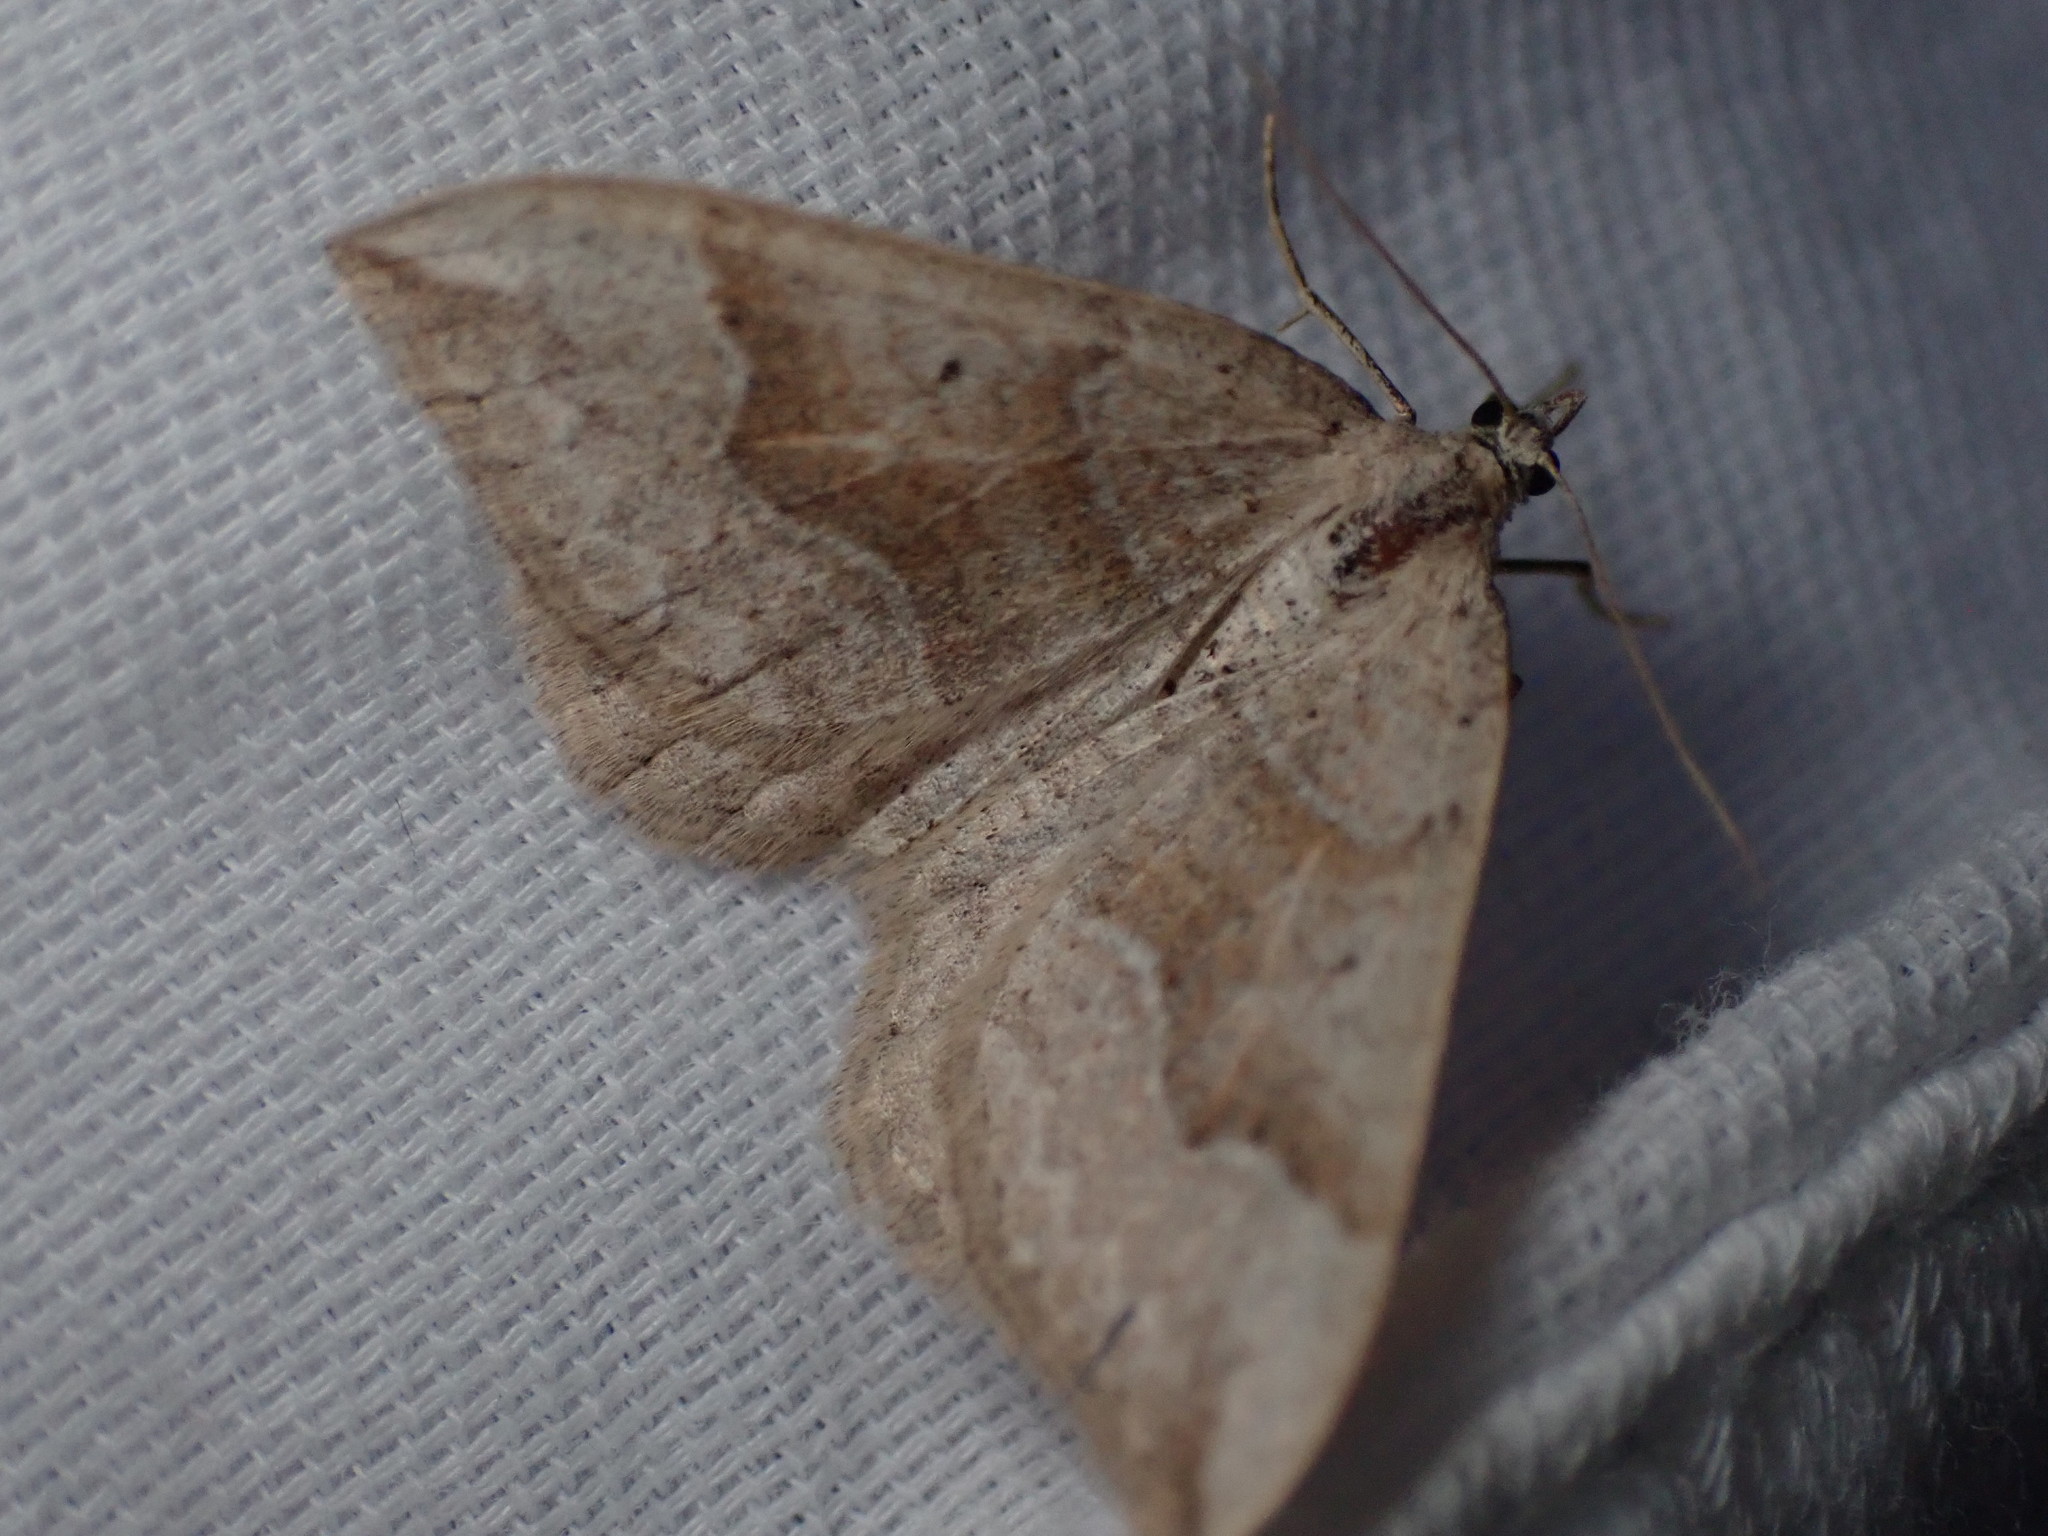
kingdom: Animalia
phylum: Arthropoda
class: Insecta
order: Lepidoptera
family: Geometridae
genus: Zenophleps
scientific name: Zenophleps lignicolorata
